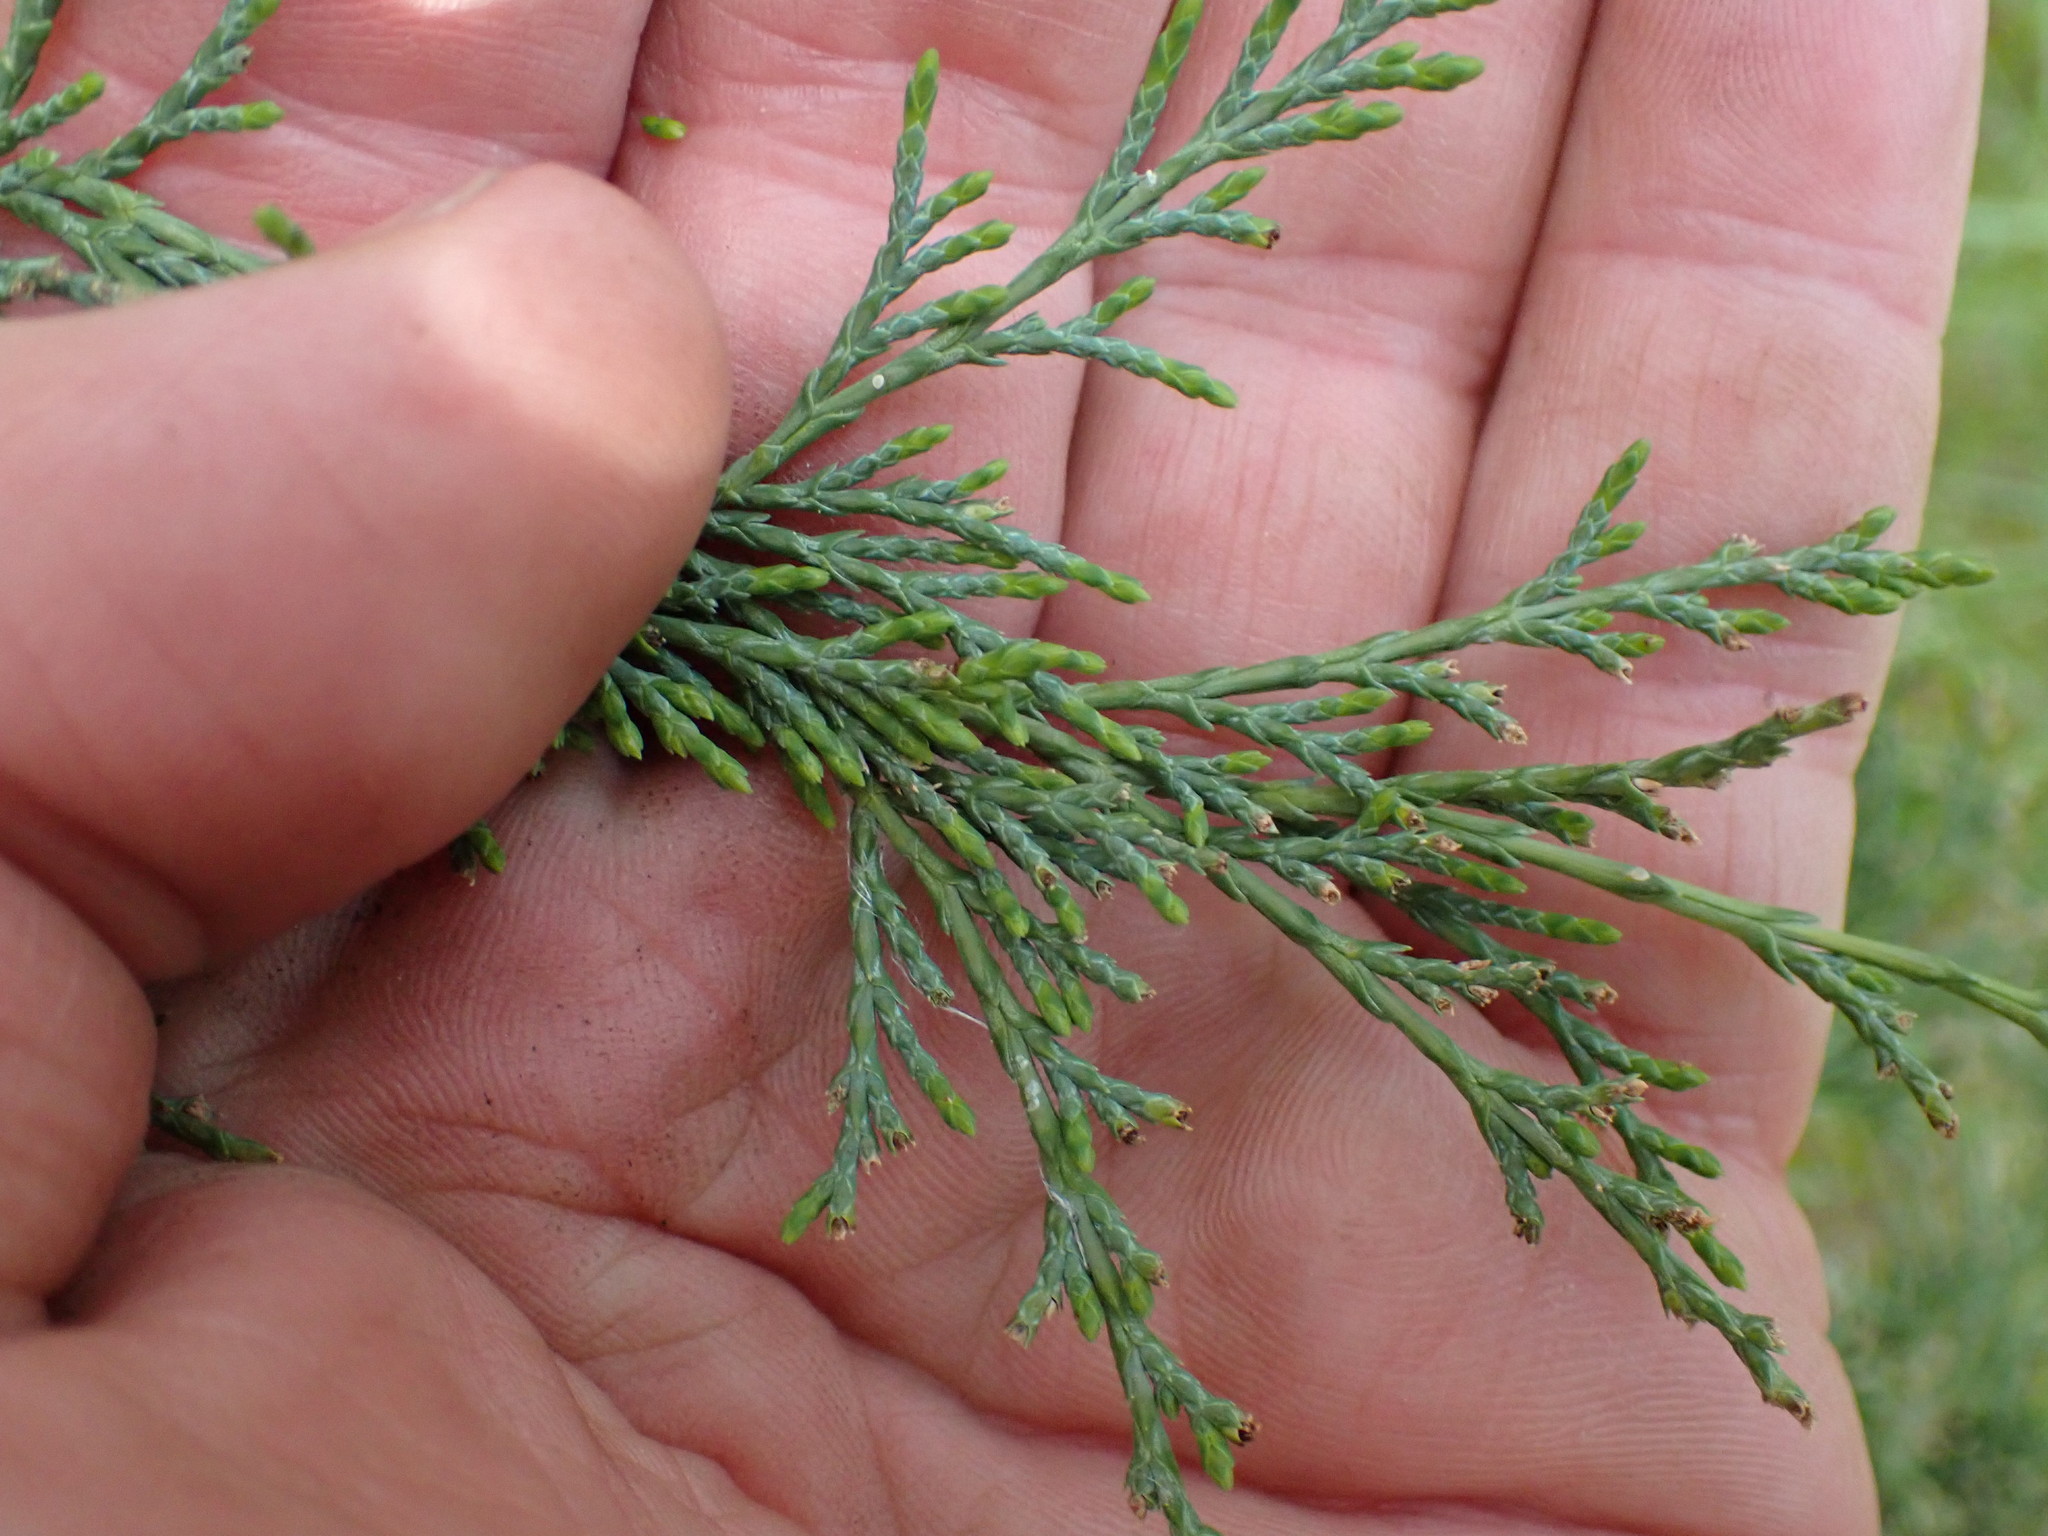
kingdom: Plantae
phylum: Tracheophyta
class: Pinopsida
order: Pinales
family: Cupressaceae
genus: Juniperus
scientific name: Juniperus scopulorum
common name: Rocky mountain juniper
